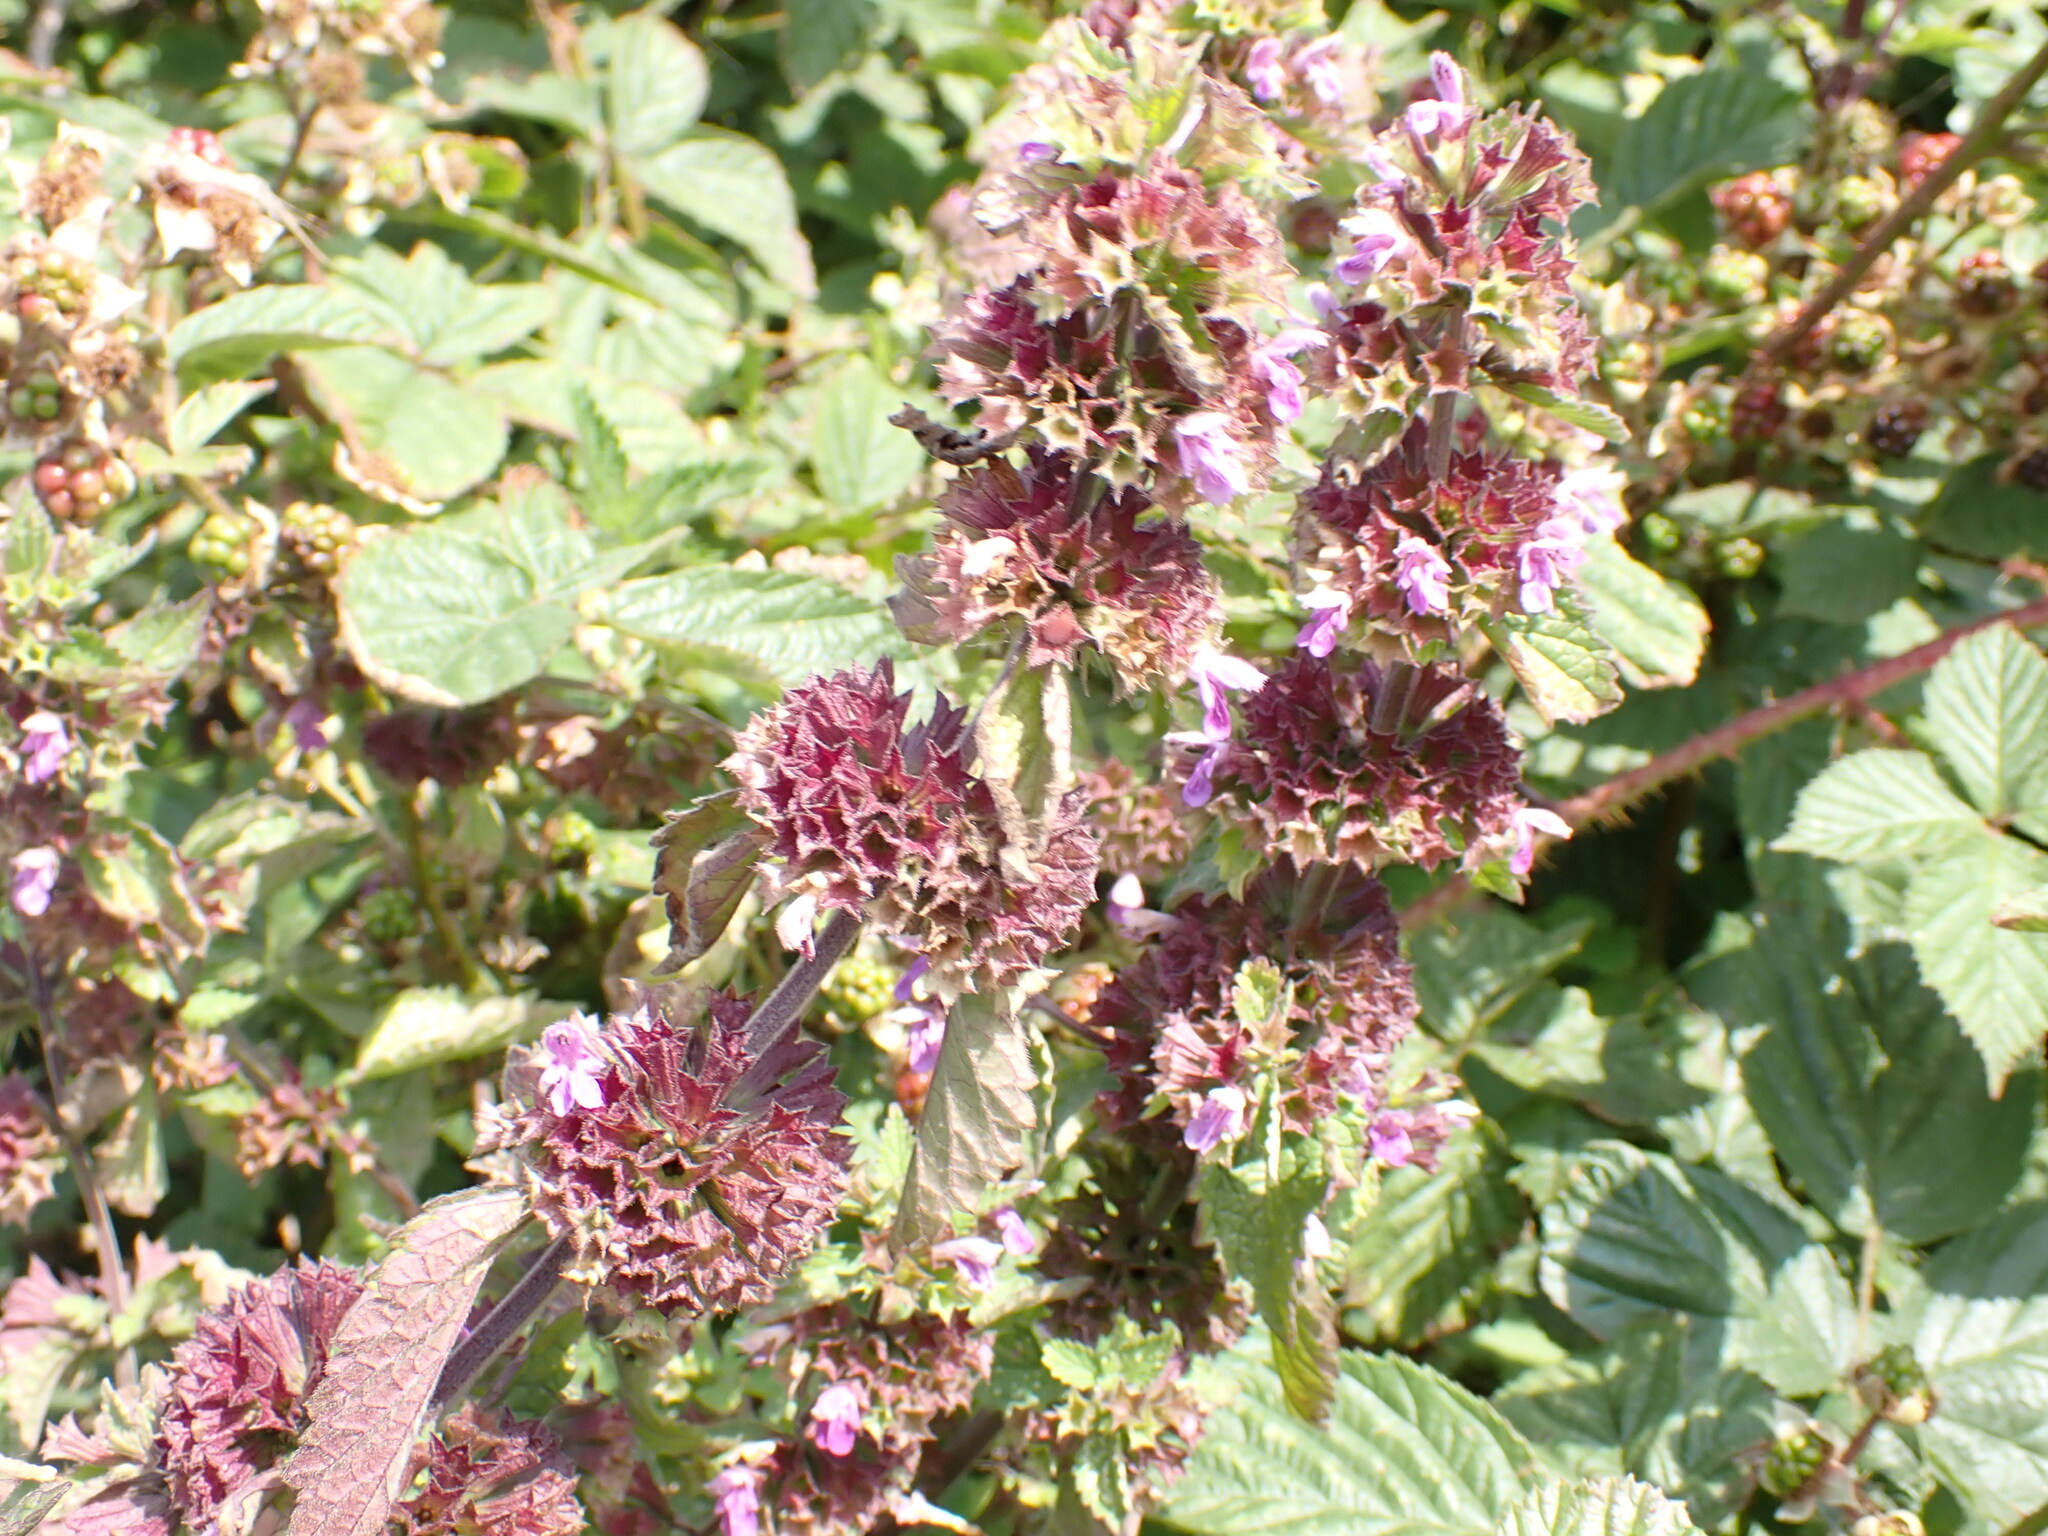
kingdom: Plantae
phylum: Tracheophyta
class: Magnoliopsida
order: Lamiales
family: Lamiaceae
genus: Ballota
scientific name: Ballota nigra
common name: Black horehound
